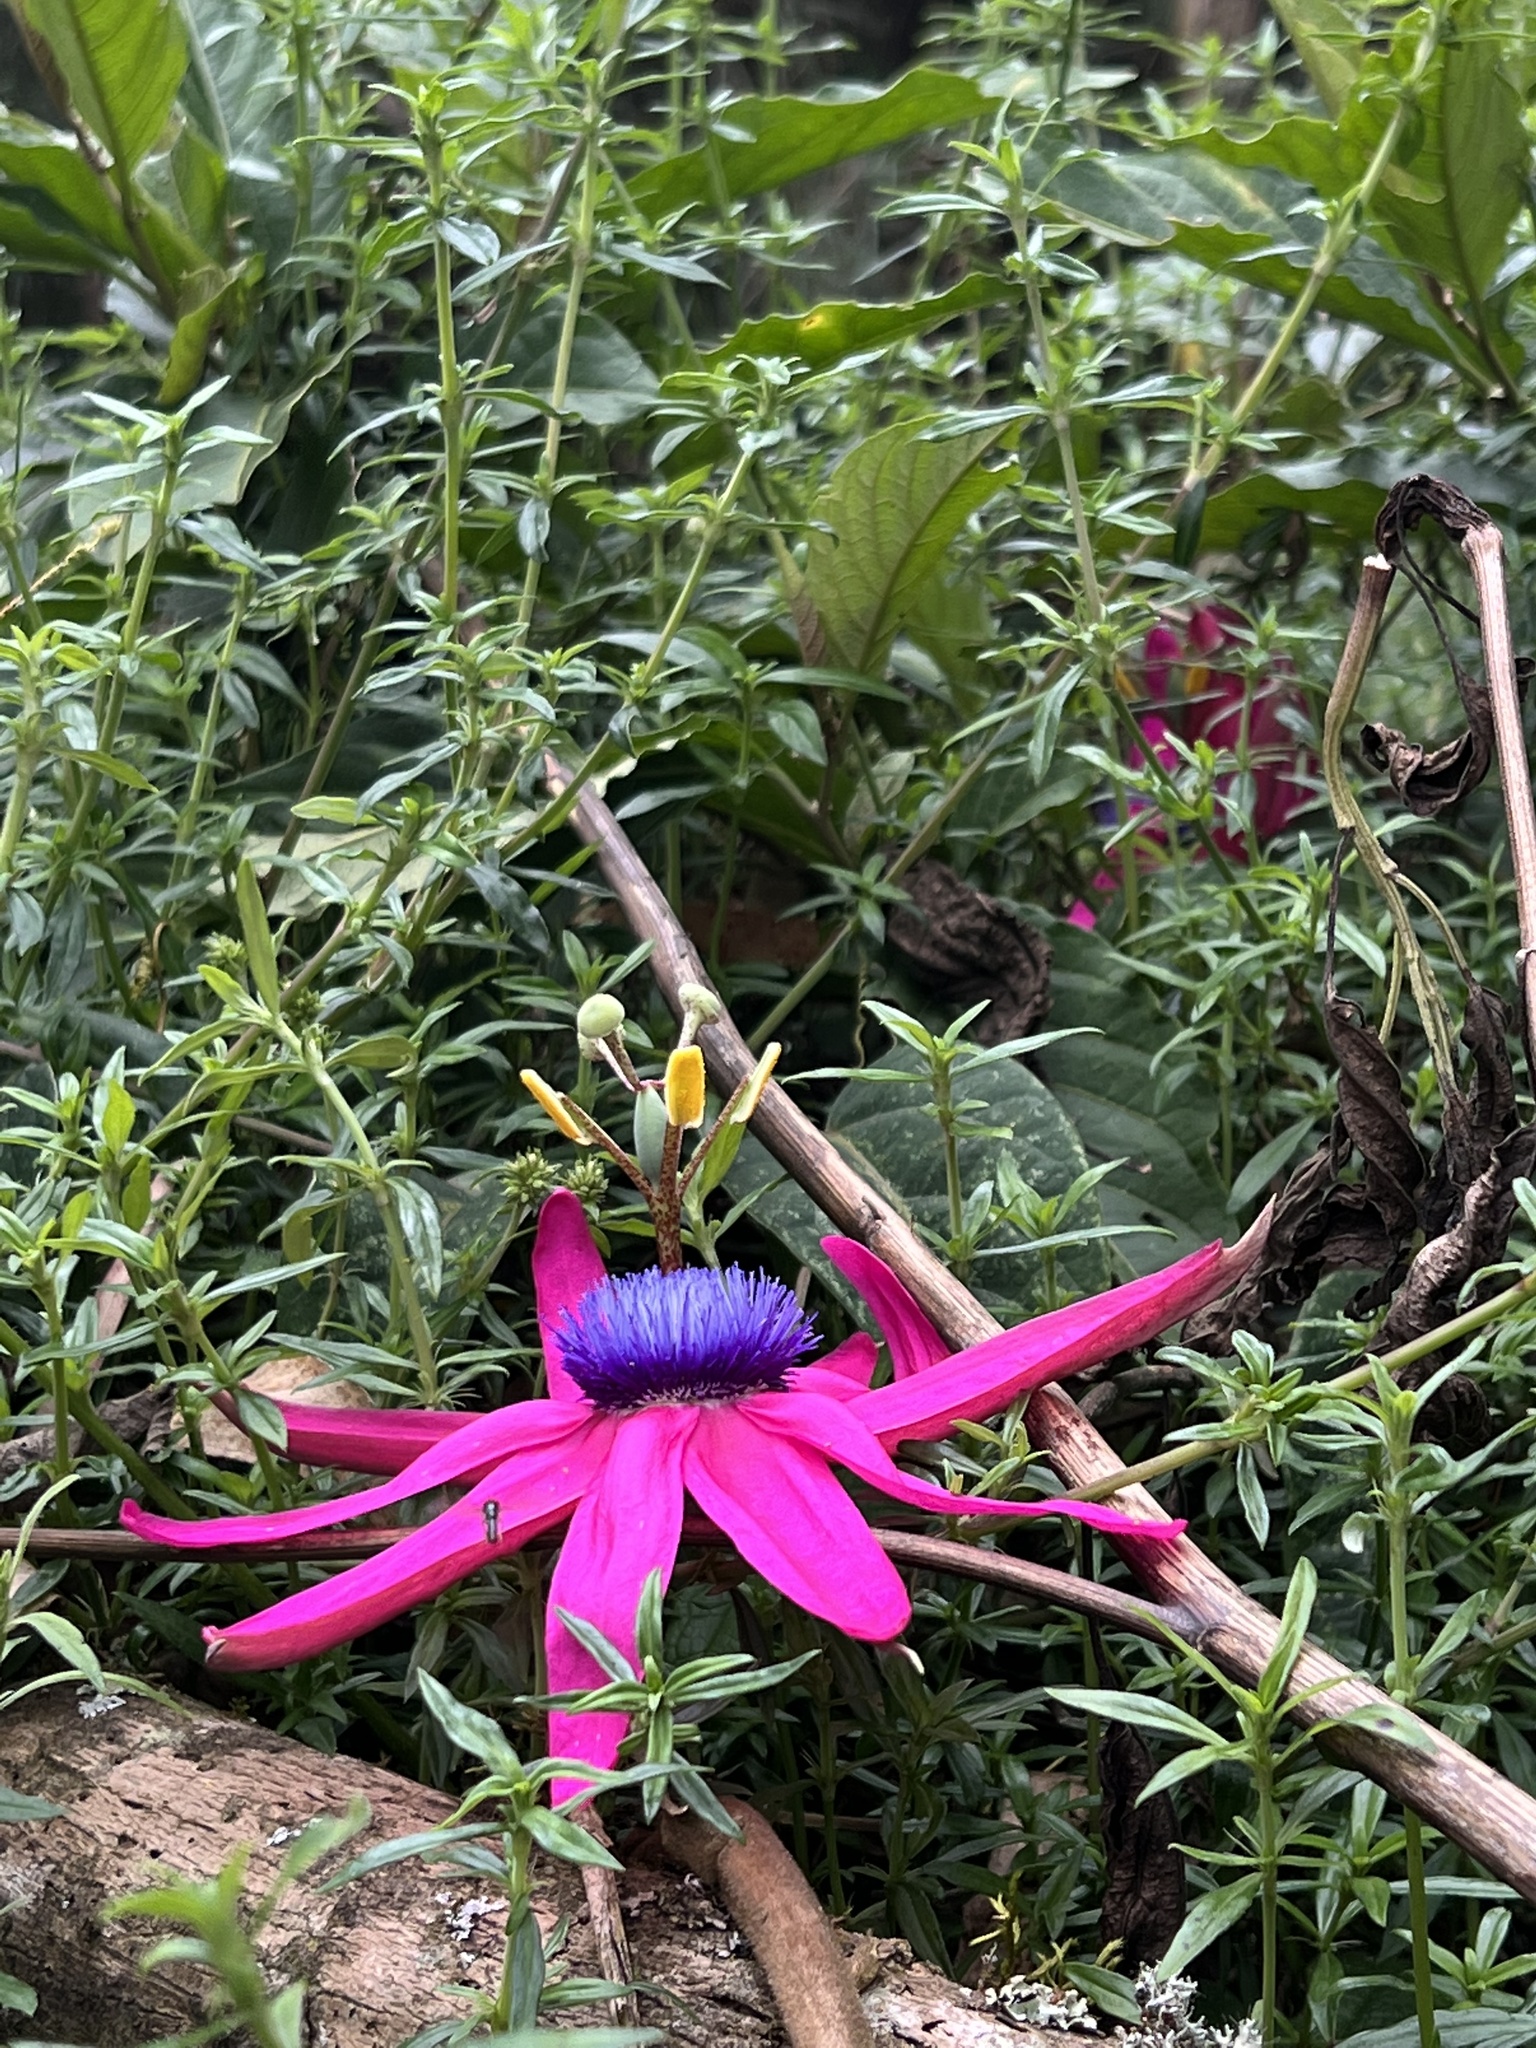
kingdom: Plantae
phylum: Tracheophyta
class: Magnoliopsida
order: Malpighiales
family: Passifloraceae
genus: Passiflora
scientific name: Passiflora longipes
